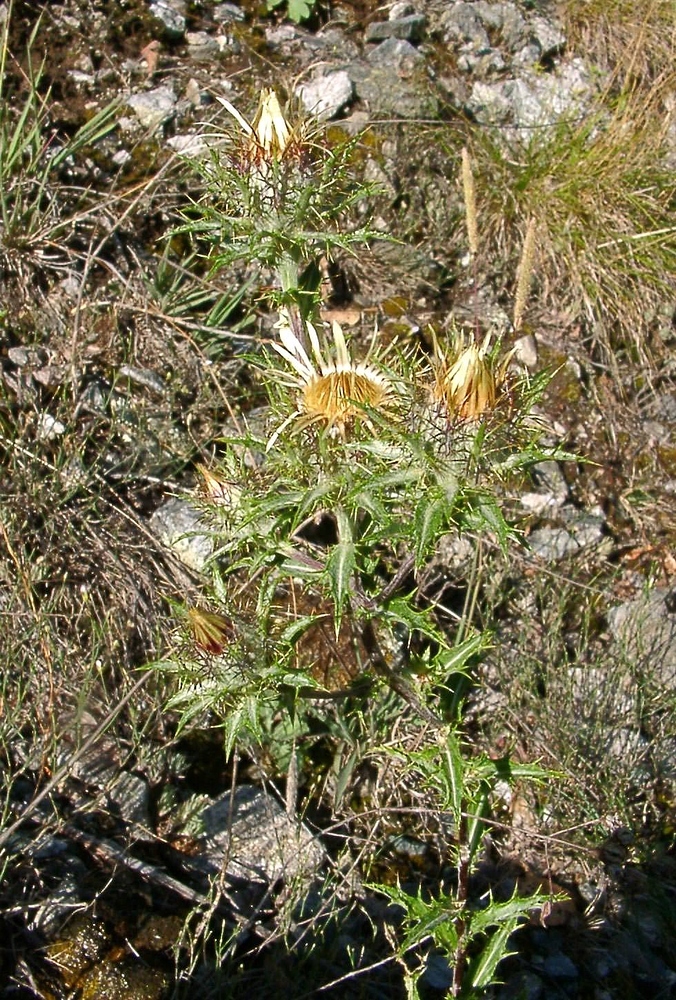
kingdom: Plantae
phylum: Tracheophyta
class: Magnoliopsida
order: Asterales
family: Asteraceae
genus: Carlina
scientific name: Carlina vulgaris
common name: Carline thistle
